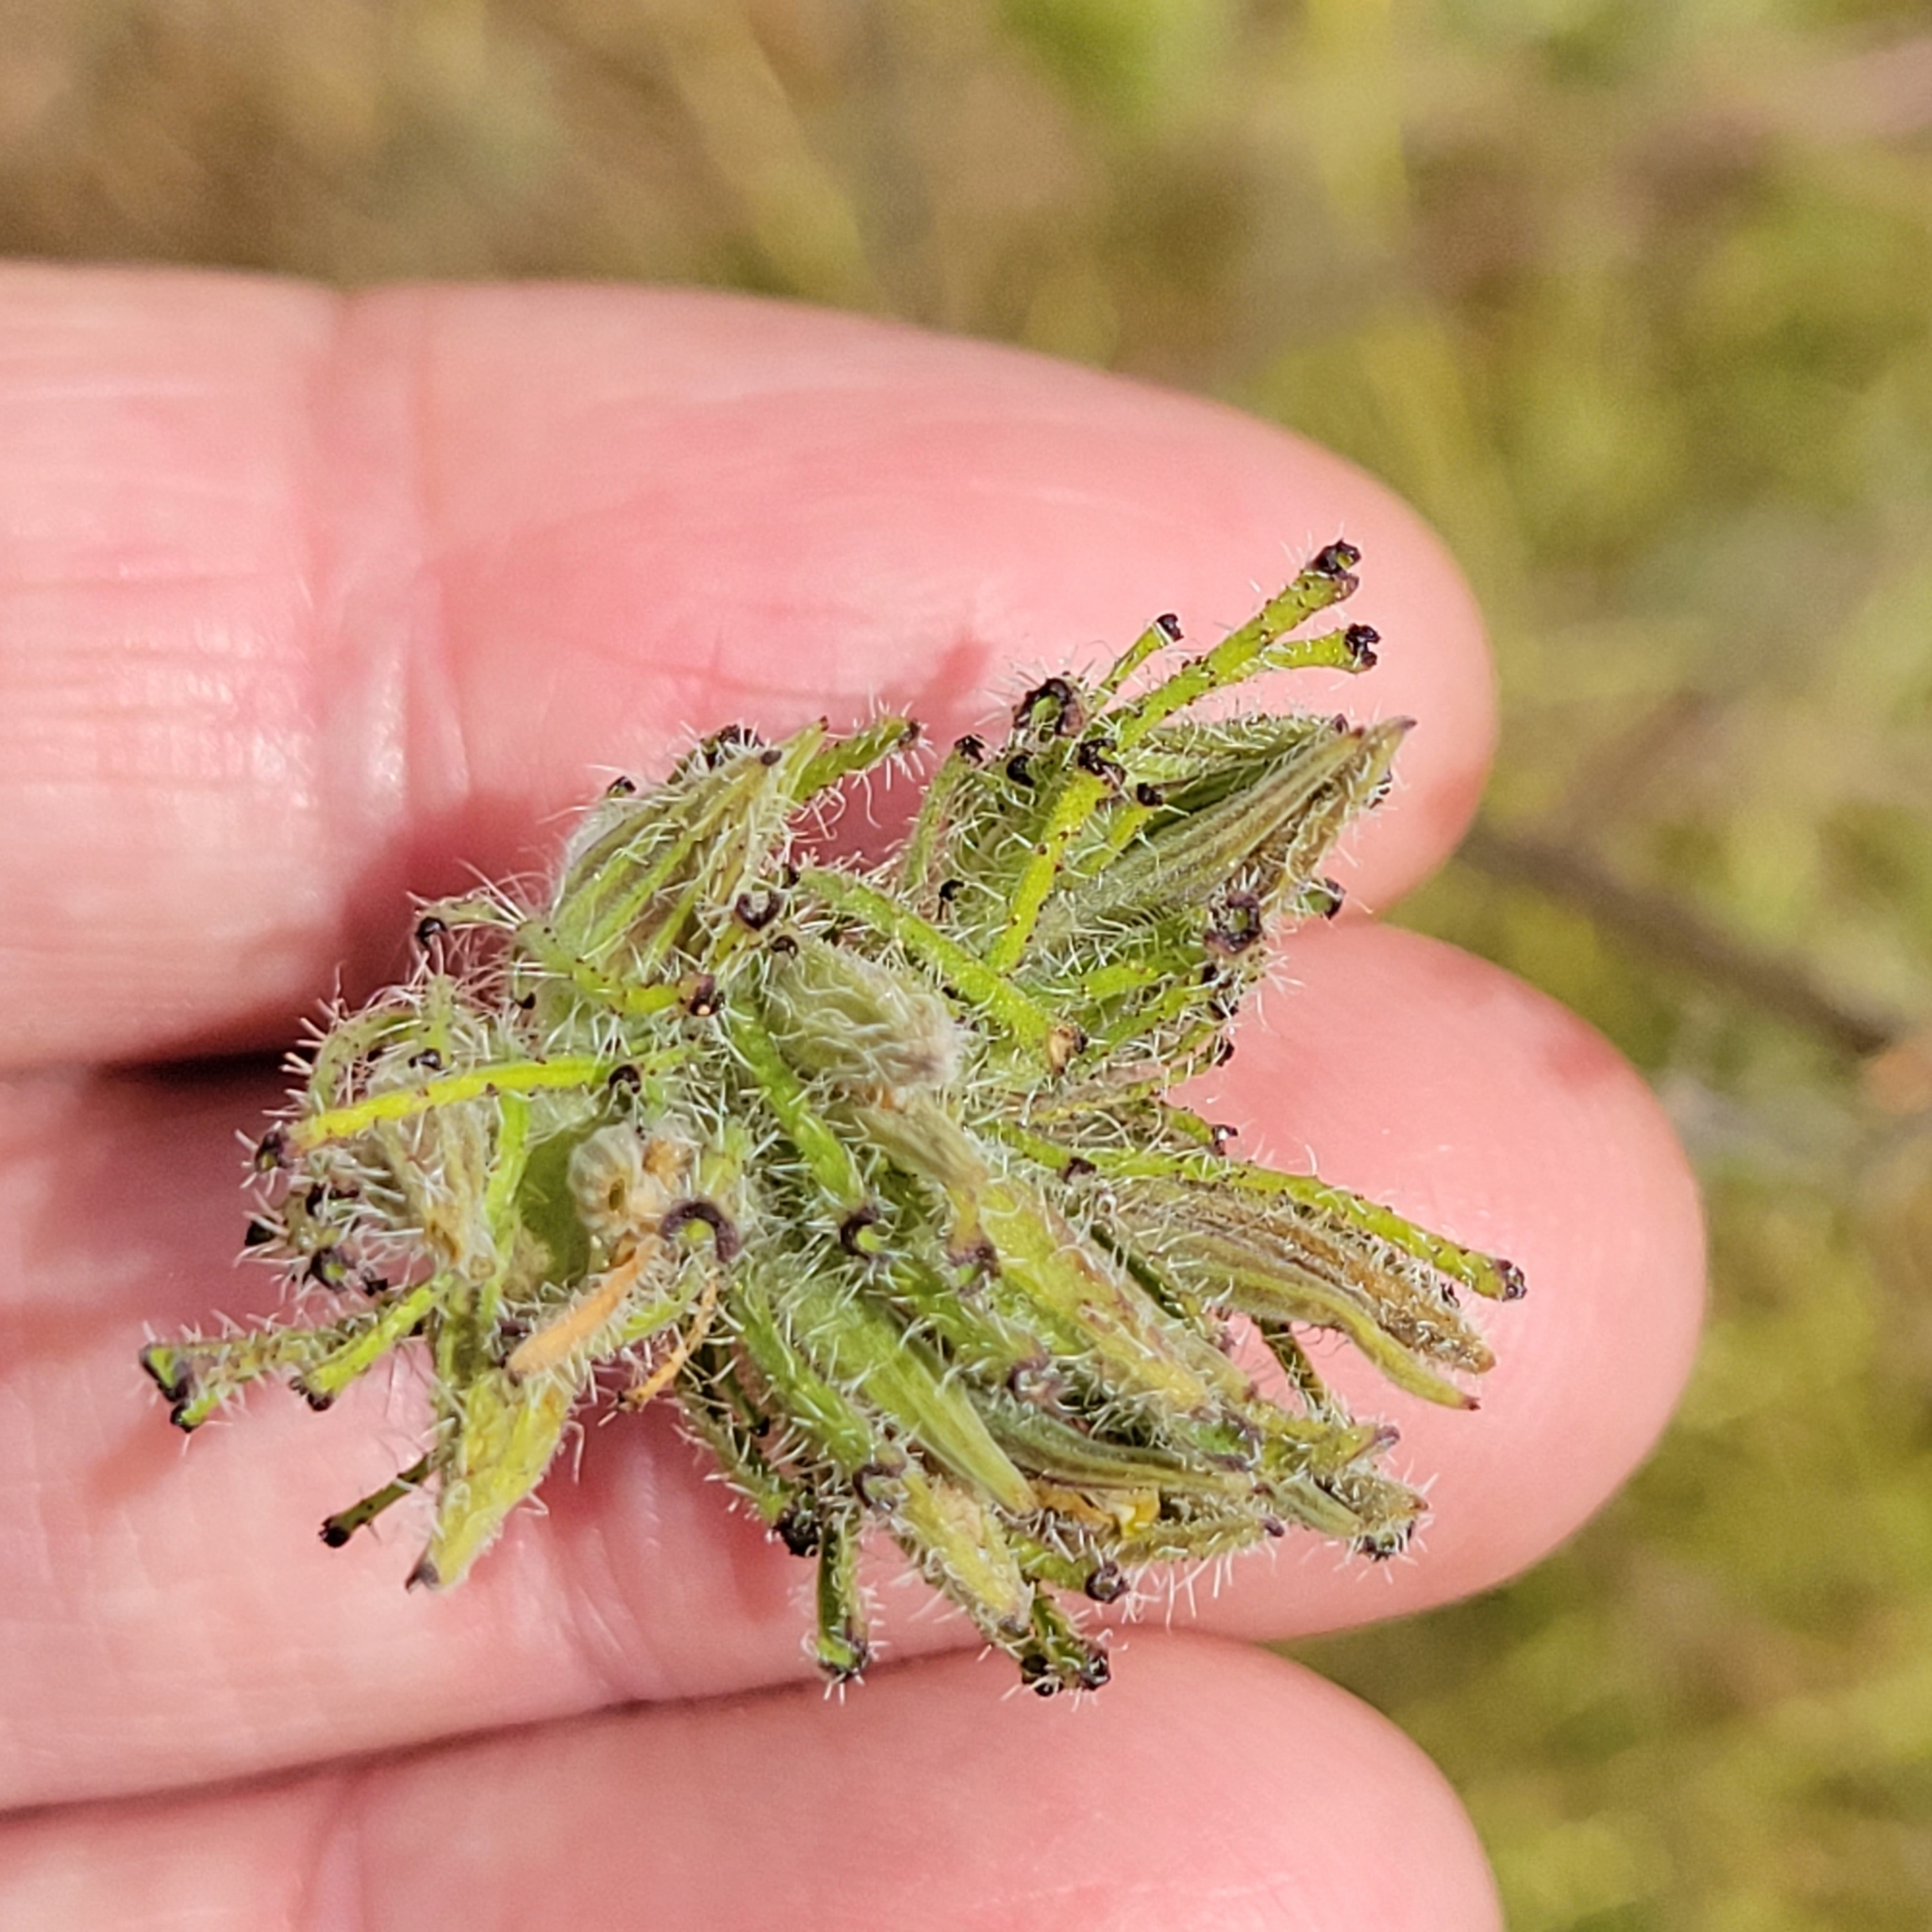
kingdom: Plantae
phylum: Tracheophyta
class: Magnoliopsida
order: Lamiales
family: Orobanchaceae
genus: Cordylanthus
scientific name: Cordylanthus rigidus
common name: Stiff-branch bird's-beak
